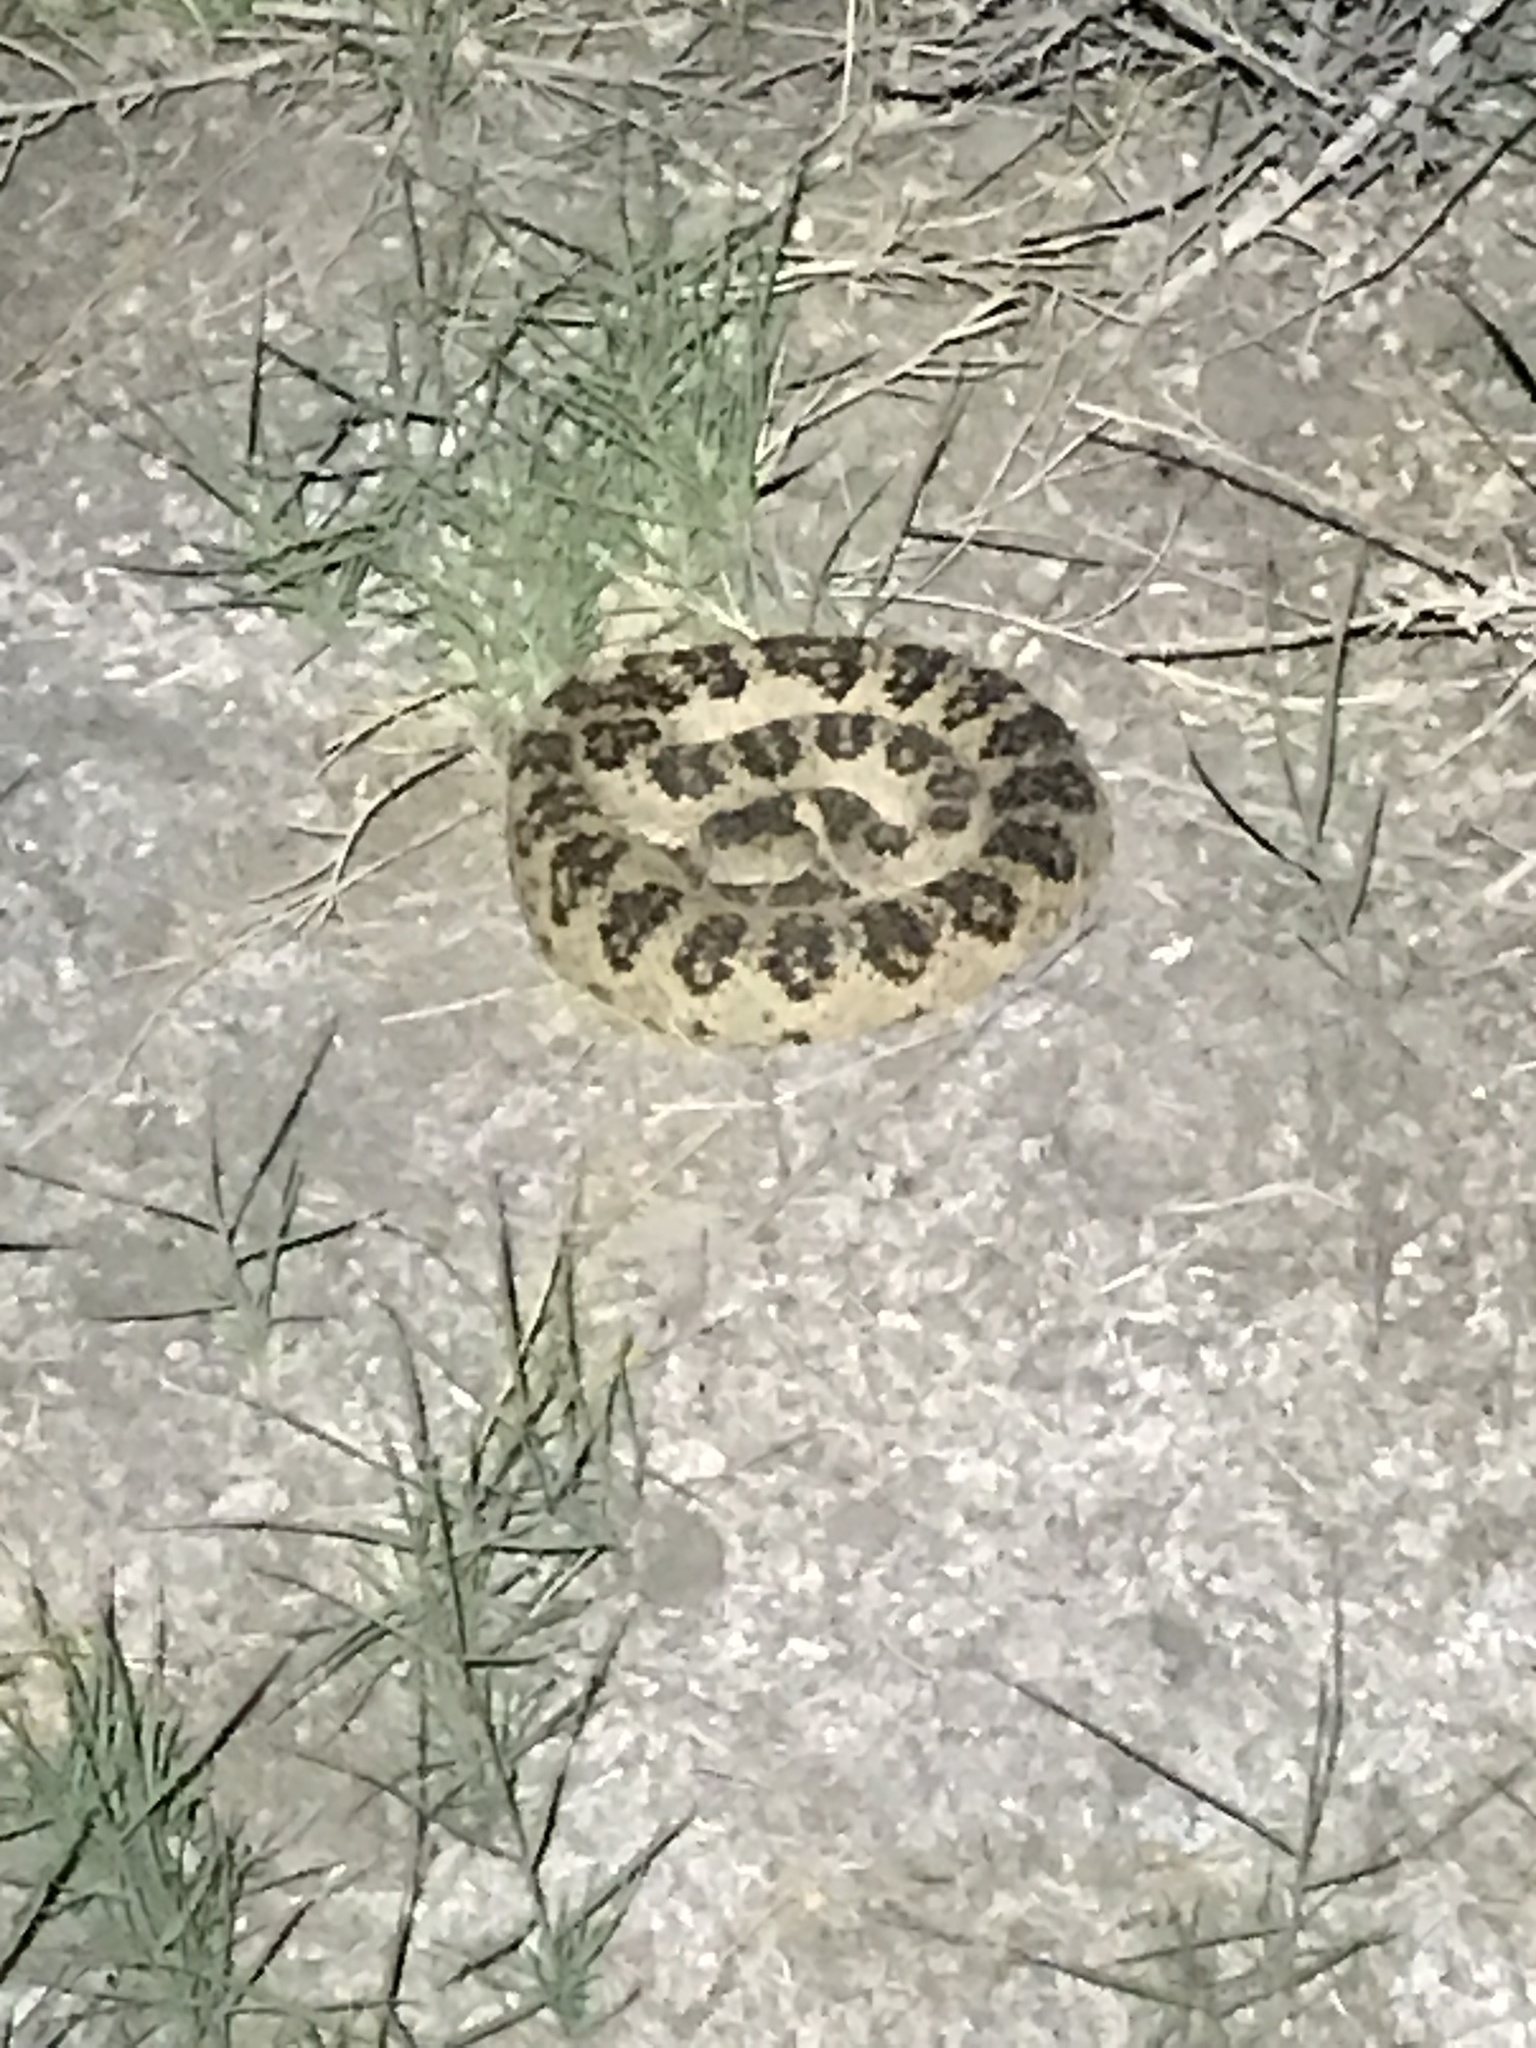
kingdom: Animalia
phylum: Chordata
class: Squamata
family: Viperidae
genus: Crotalus
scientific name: Crotalus oreganus
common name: Abyssus
